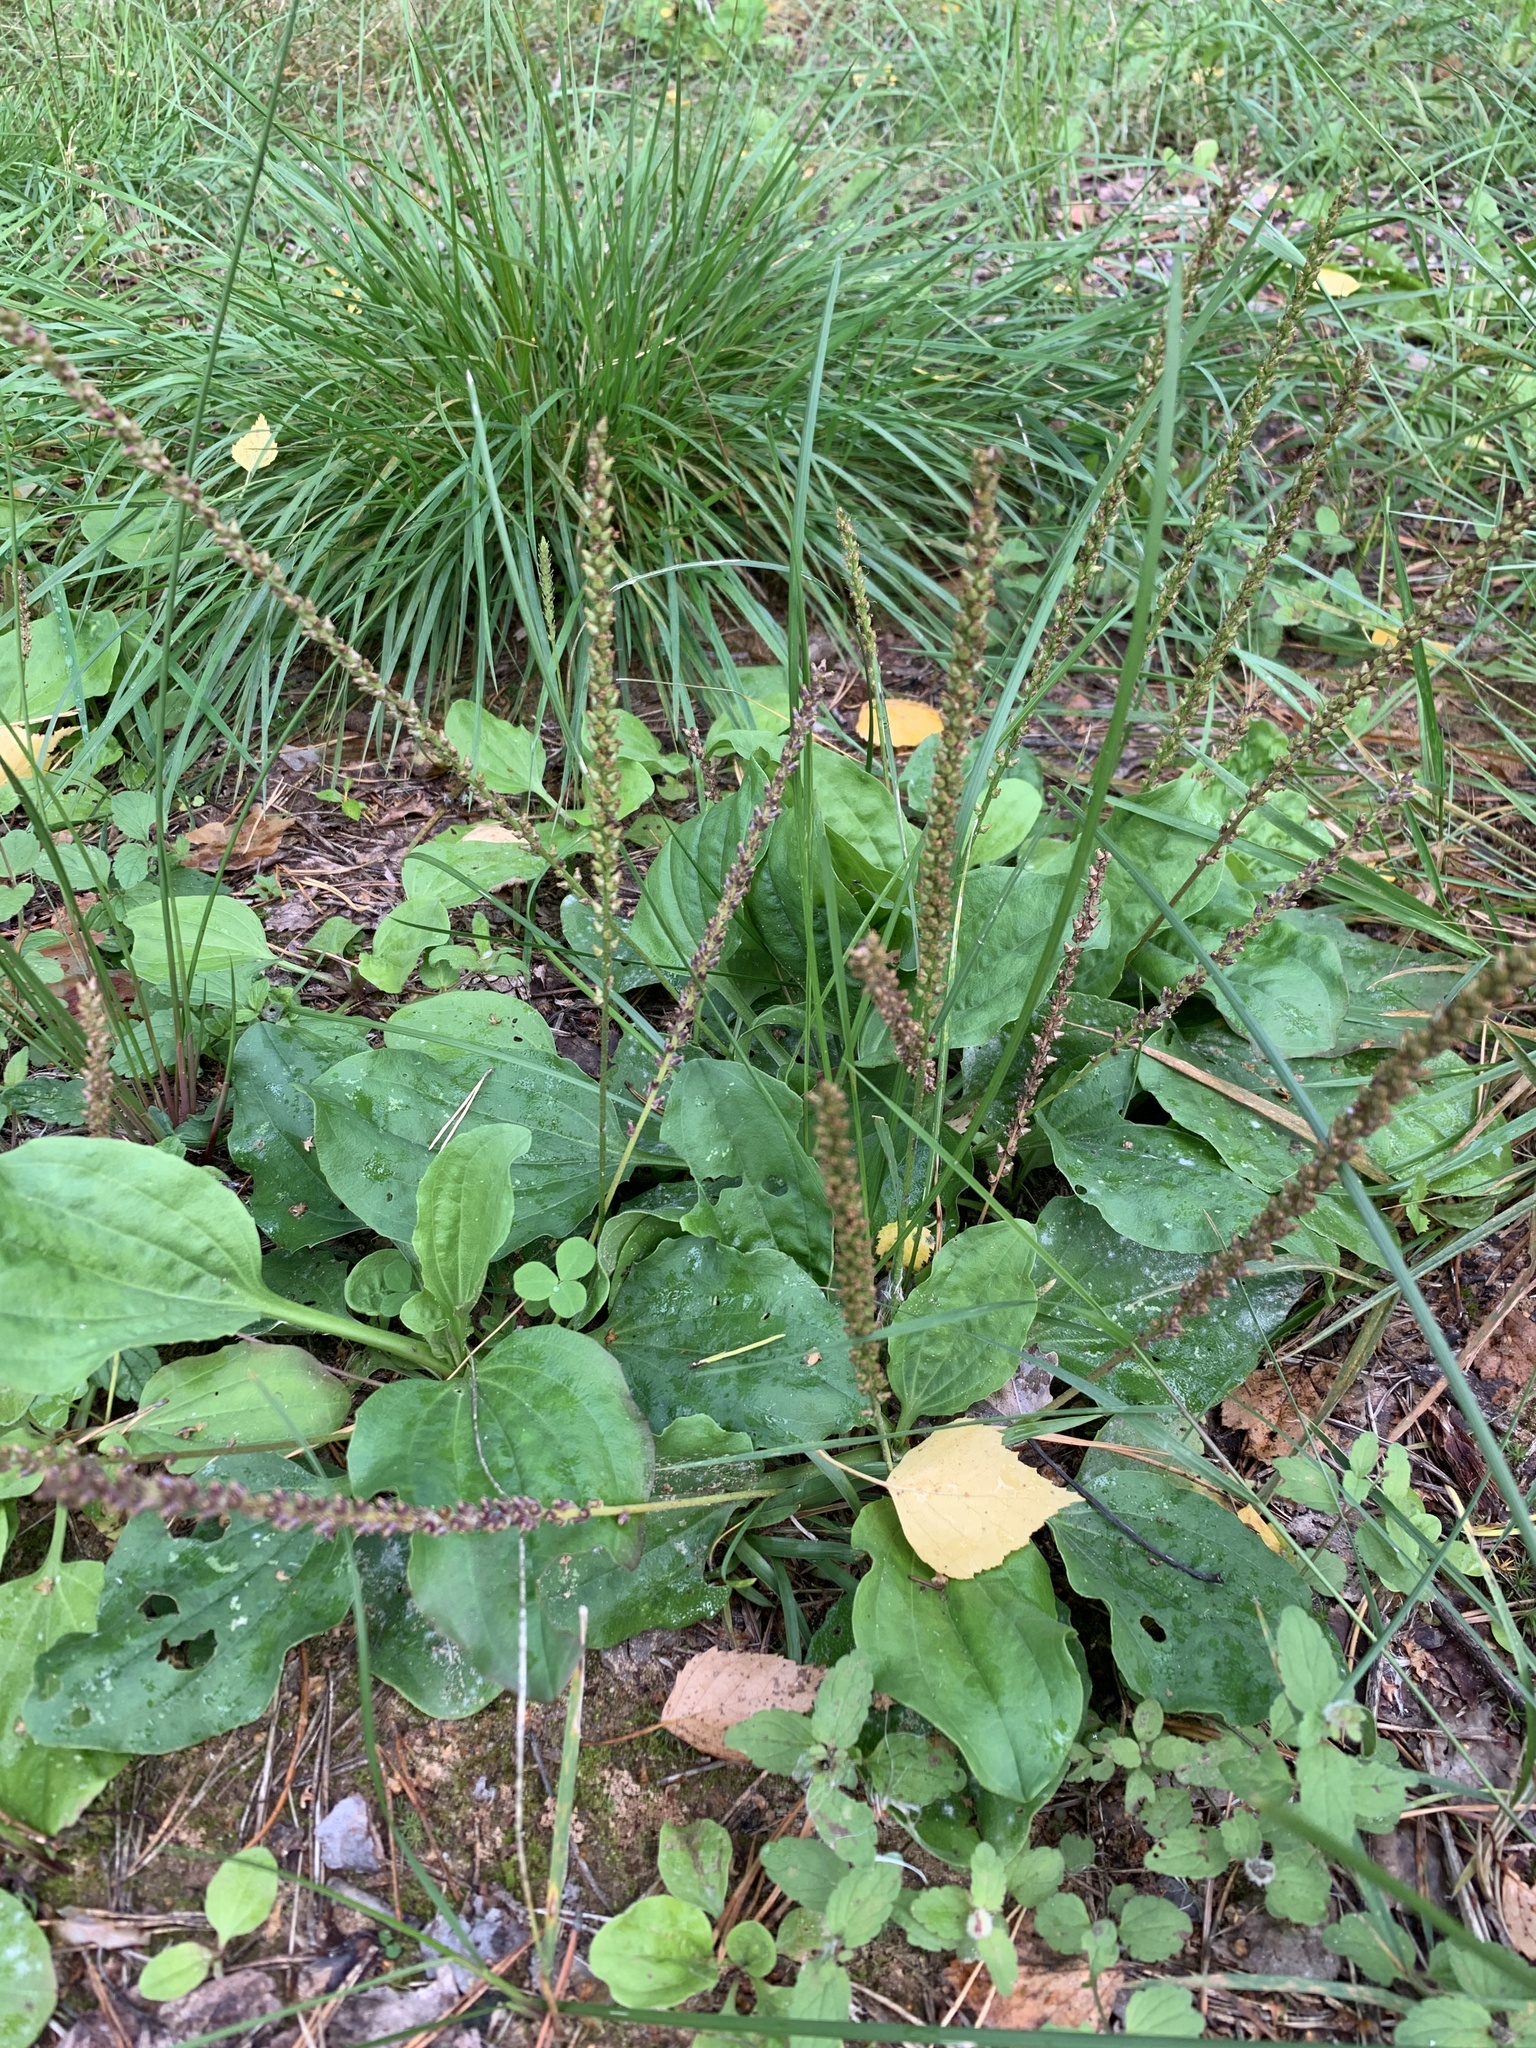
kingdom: Plantae
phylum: Tracheophyta
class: Magnoliopsida
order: Lamiales
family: Plantaginaceae
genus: Plantago
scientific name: Plantago major
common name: Common plantain
